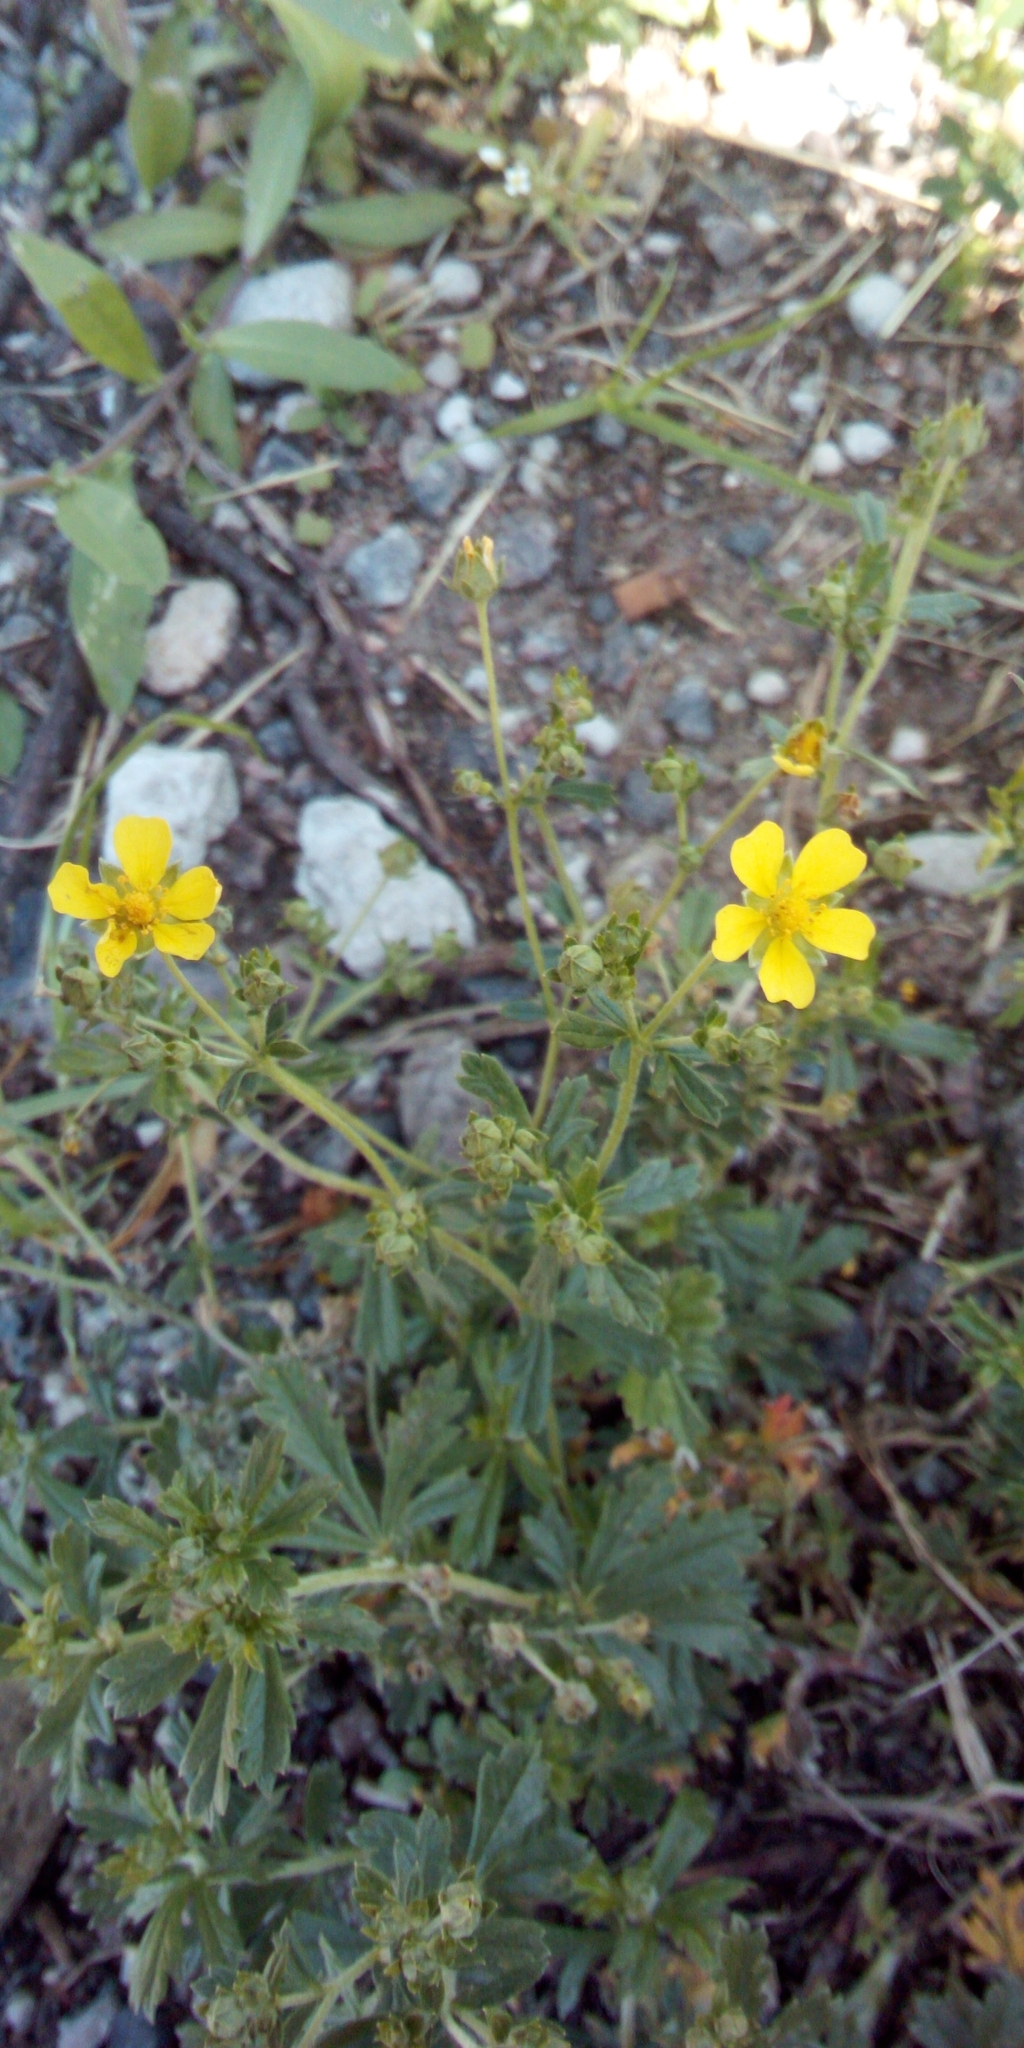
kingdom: Plantae
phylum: Tracheophyta
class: Magnoliopsida
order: Rosales
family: Rosaceae
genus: Potentilla
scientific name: Potentilla argentea
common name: Hoary cinquefoil
